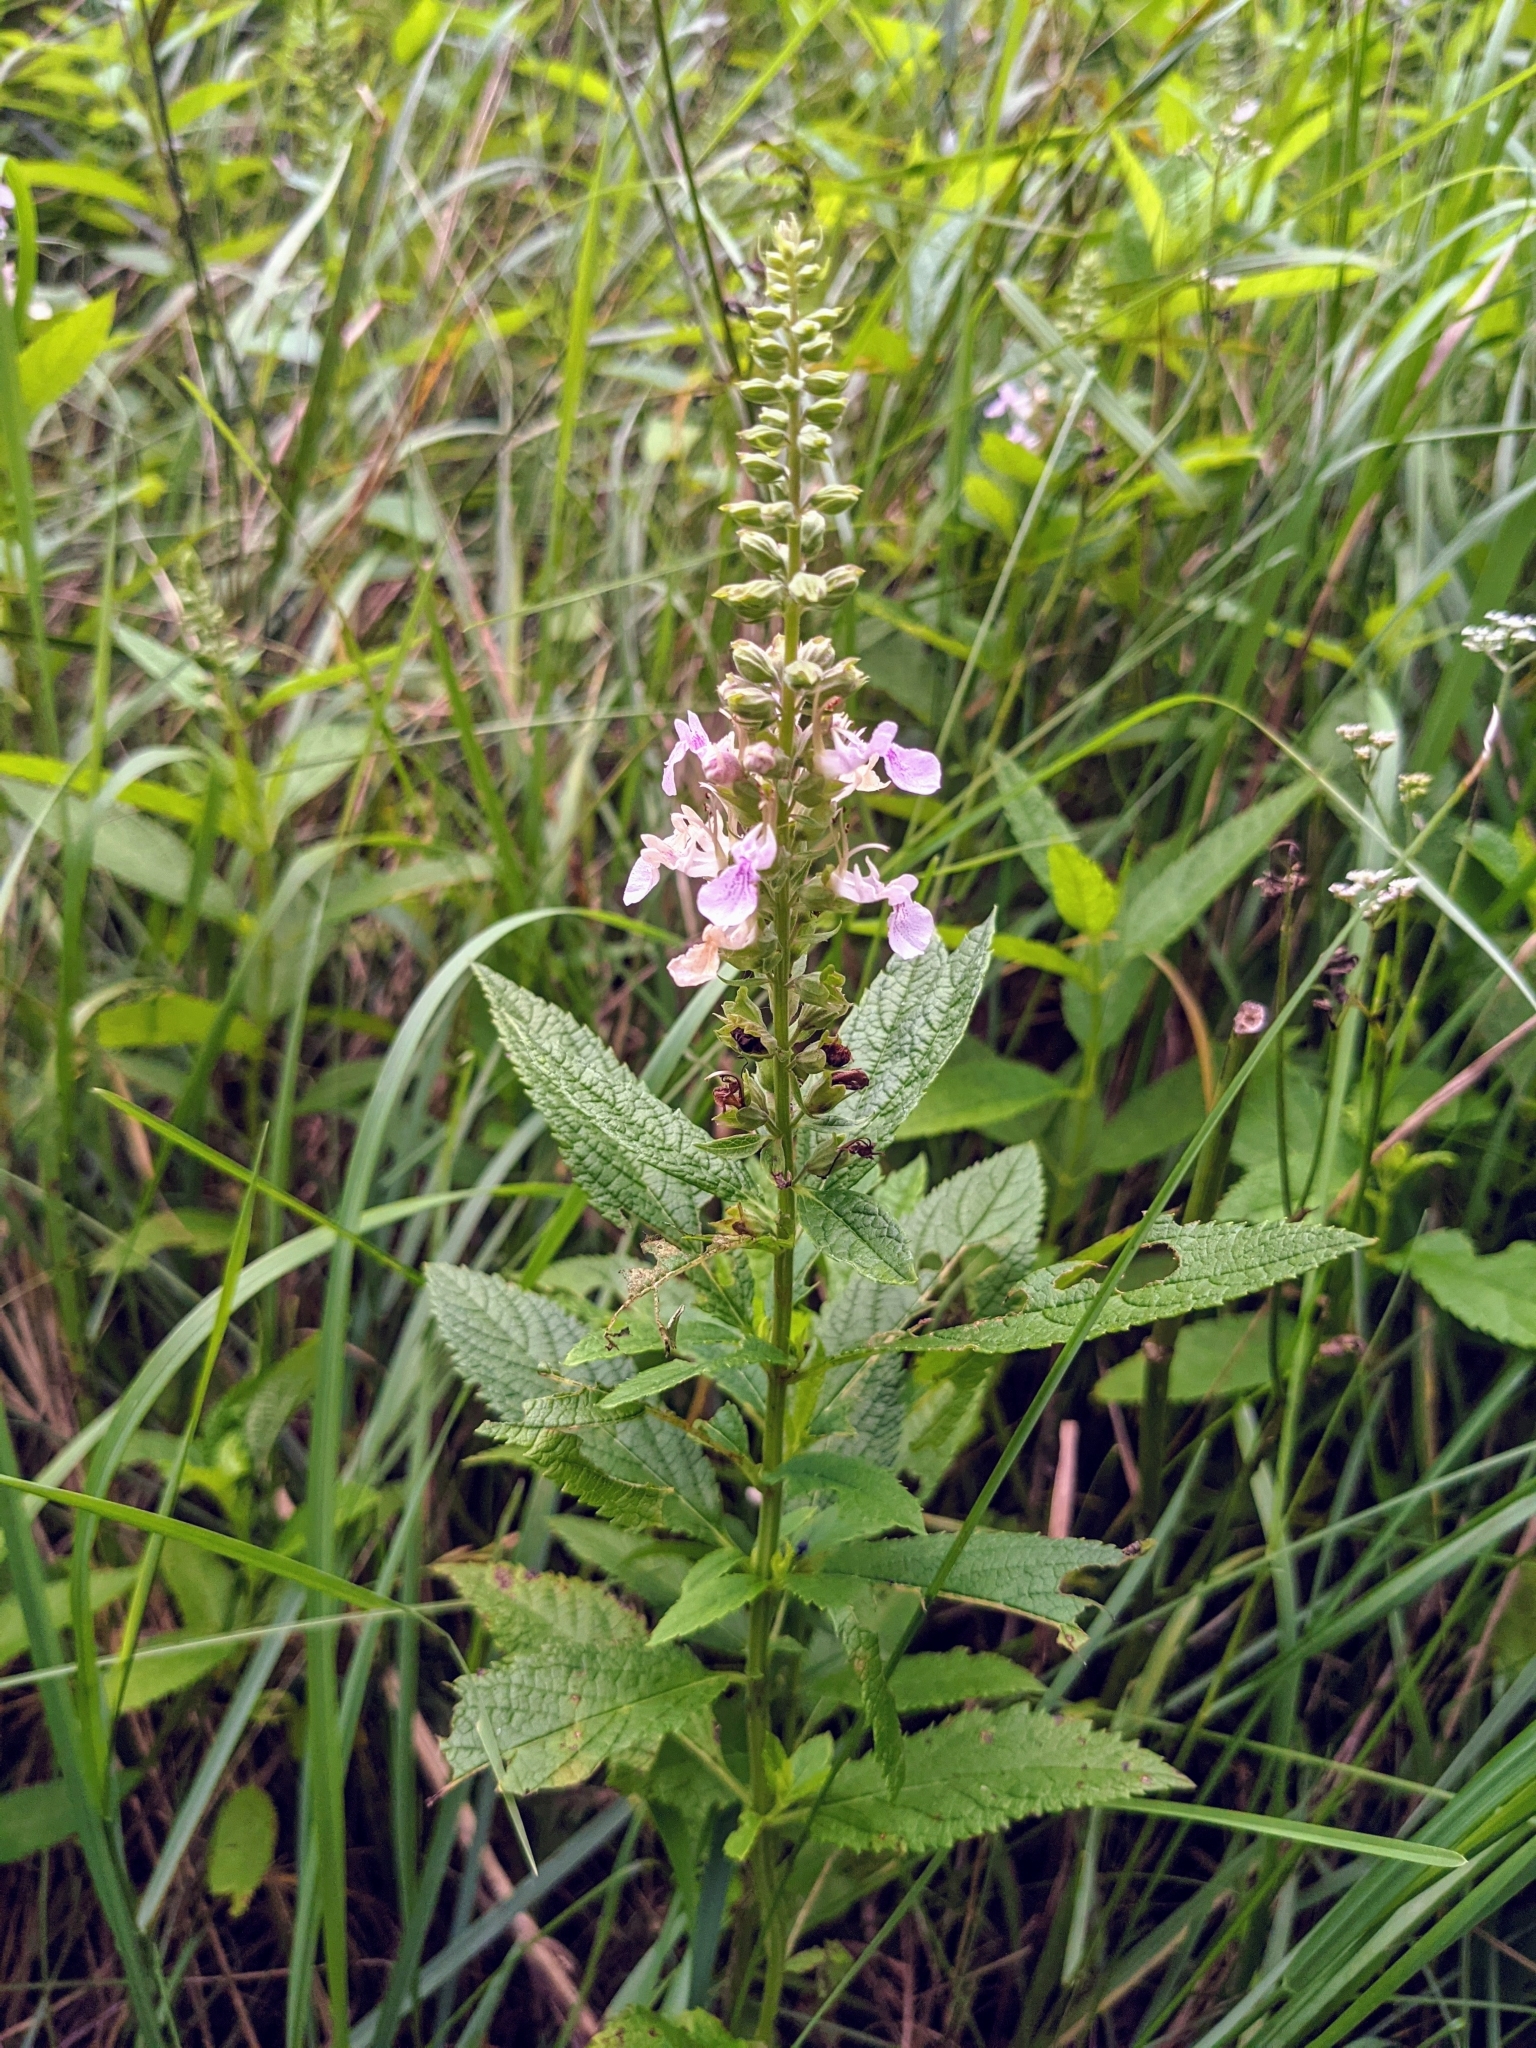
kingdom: Plantae
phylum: Tracheophyta
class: Magnoliopsida
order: Lamiales
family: Lamiaceae
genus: Teucrium
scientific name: Teucrium canadense
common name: American germander
